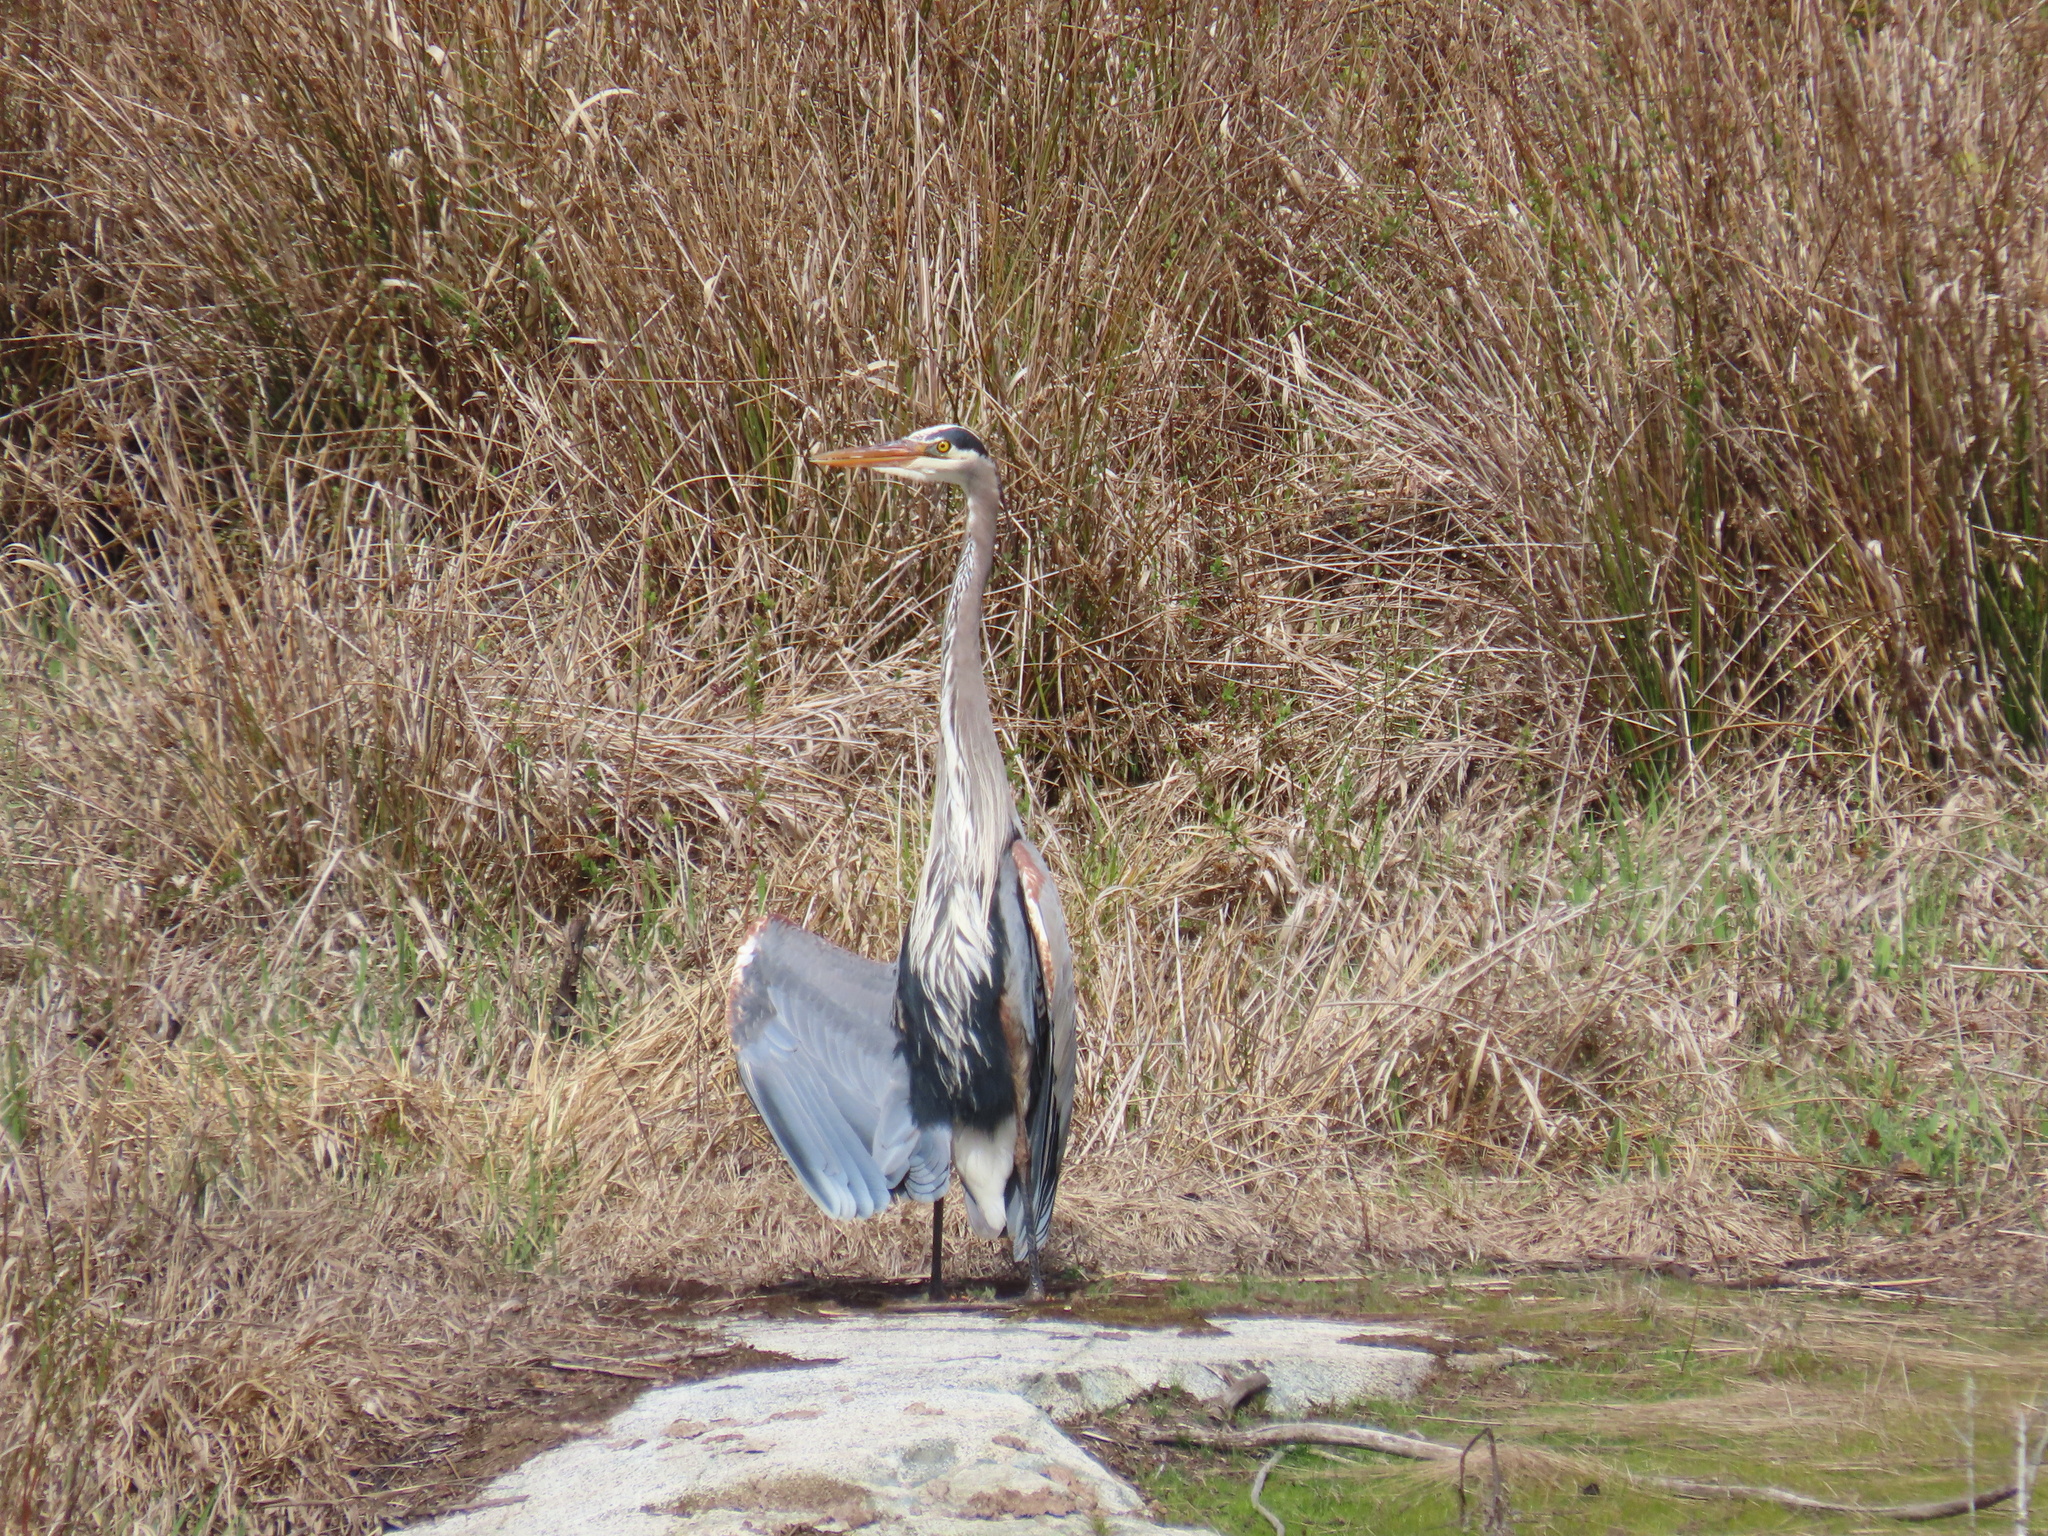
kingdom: Animalia
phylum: Chordata
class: Aves
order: Pelecaniformes
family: Ardeidae
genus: Ardea
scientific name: Ardea herodias
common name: Great blue heron
